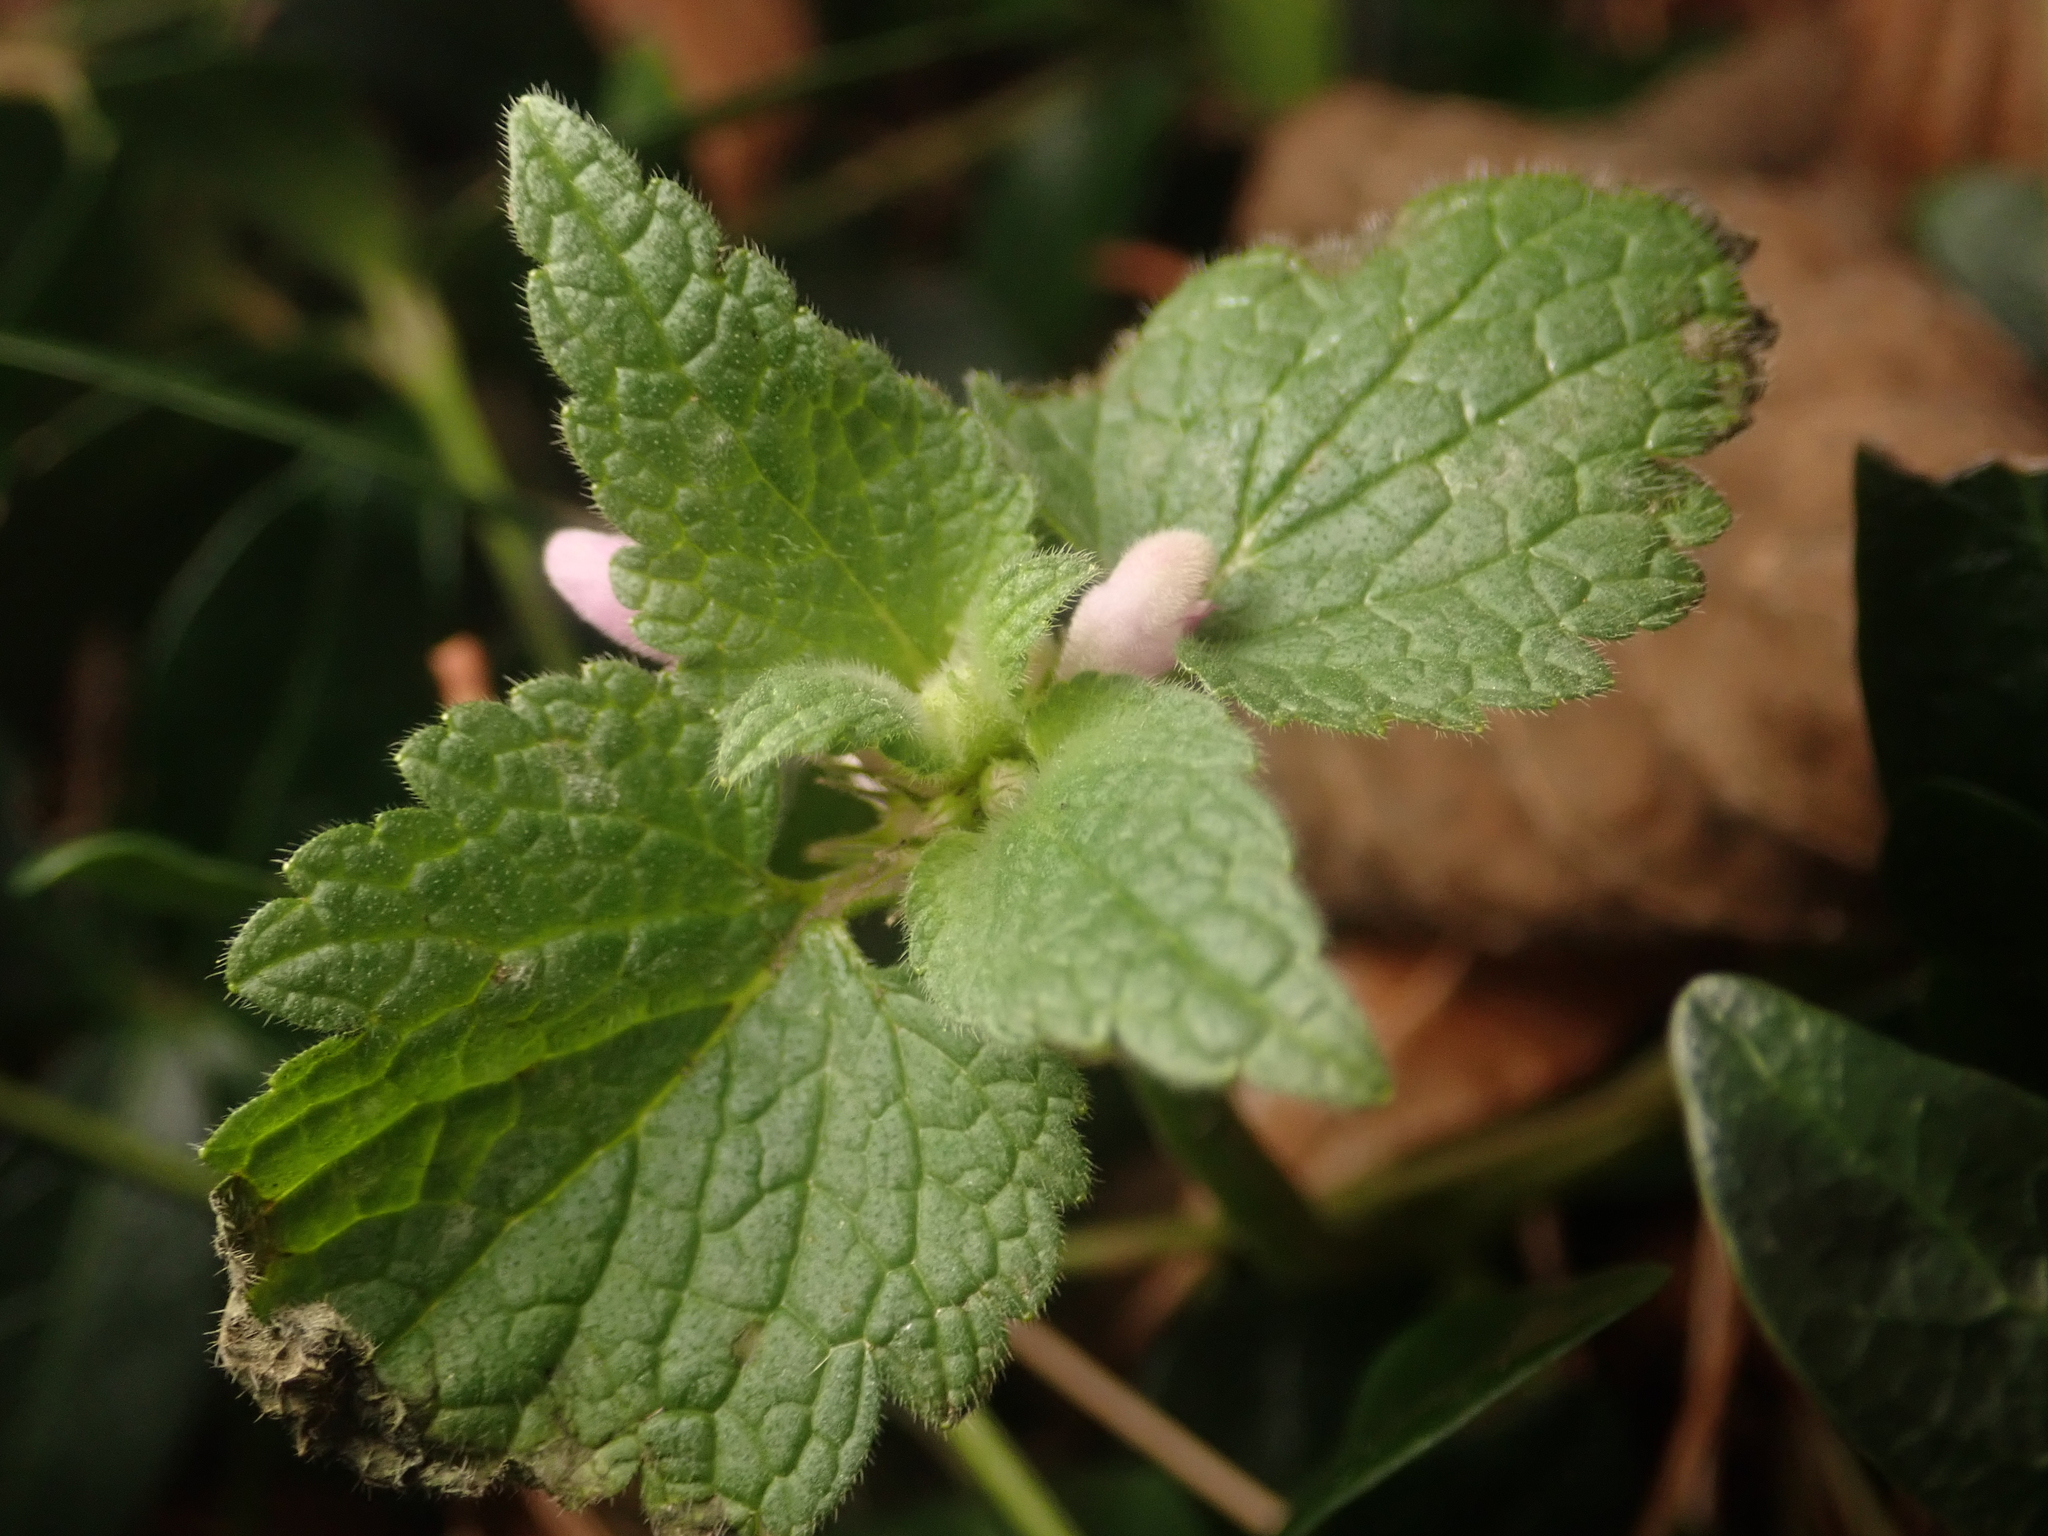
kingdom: Plantae
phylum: Tracheophyta
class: Magnoliopsida
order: Lamiales
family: Lamiaceae
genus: Lamium
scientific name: Lamium purpureum
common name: Red dead-nettle
